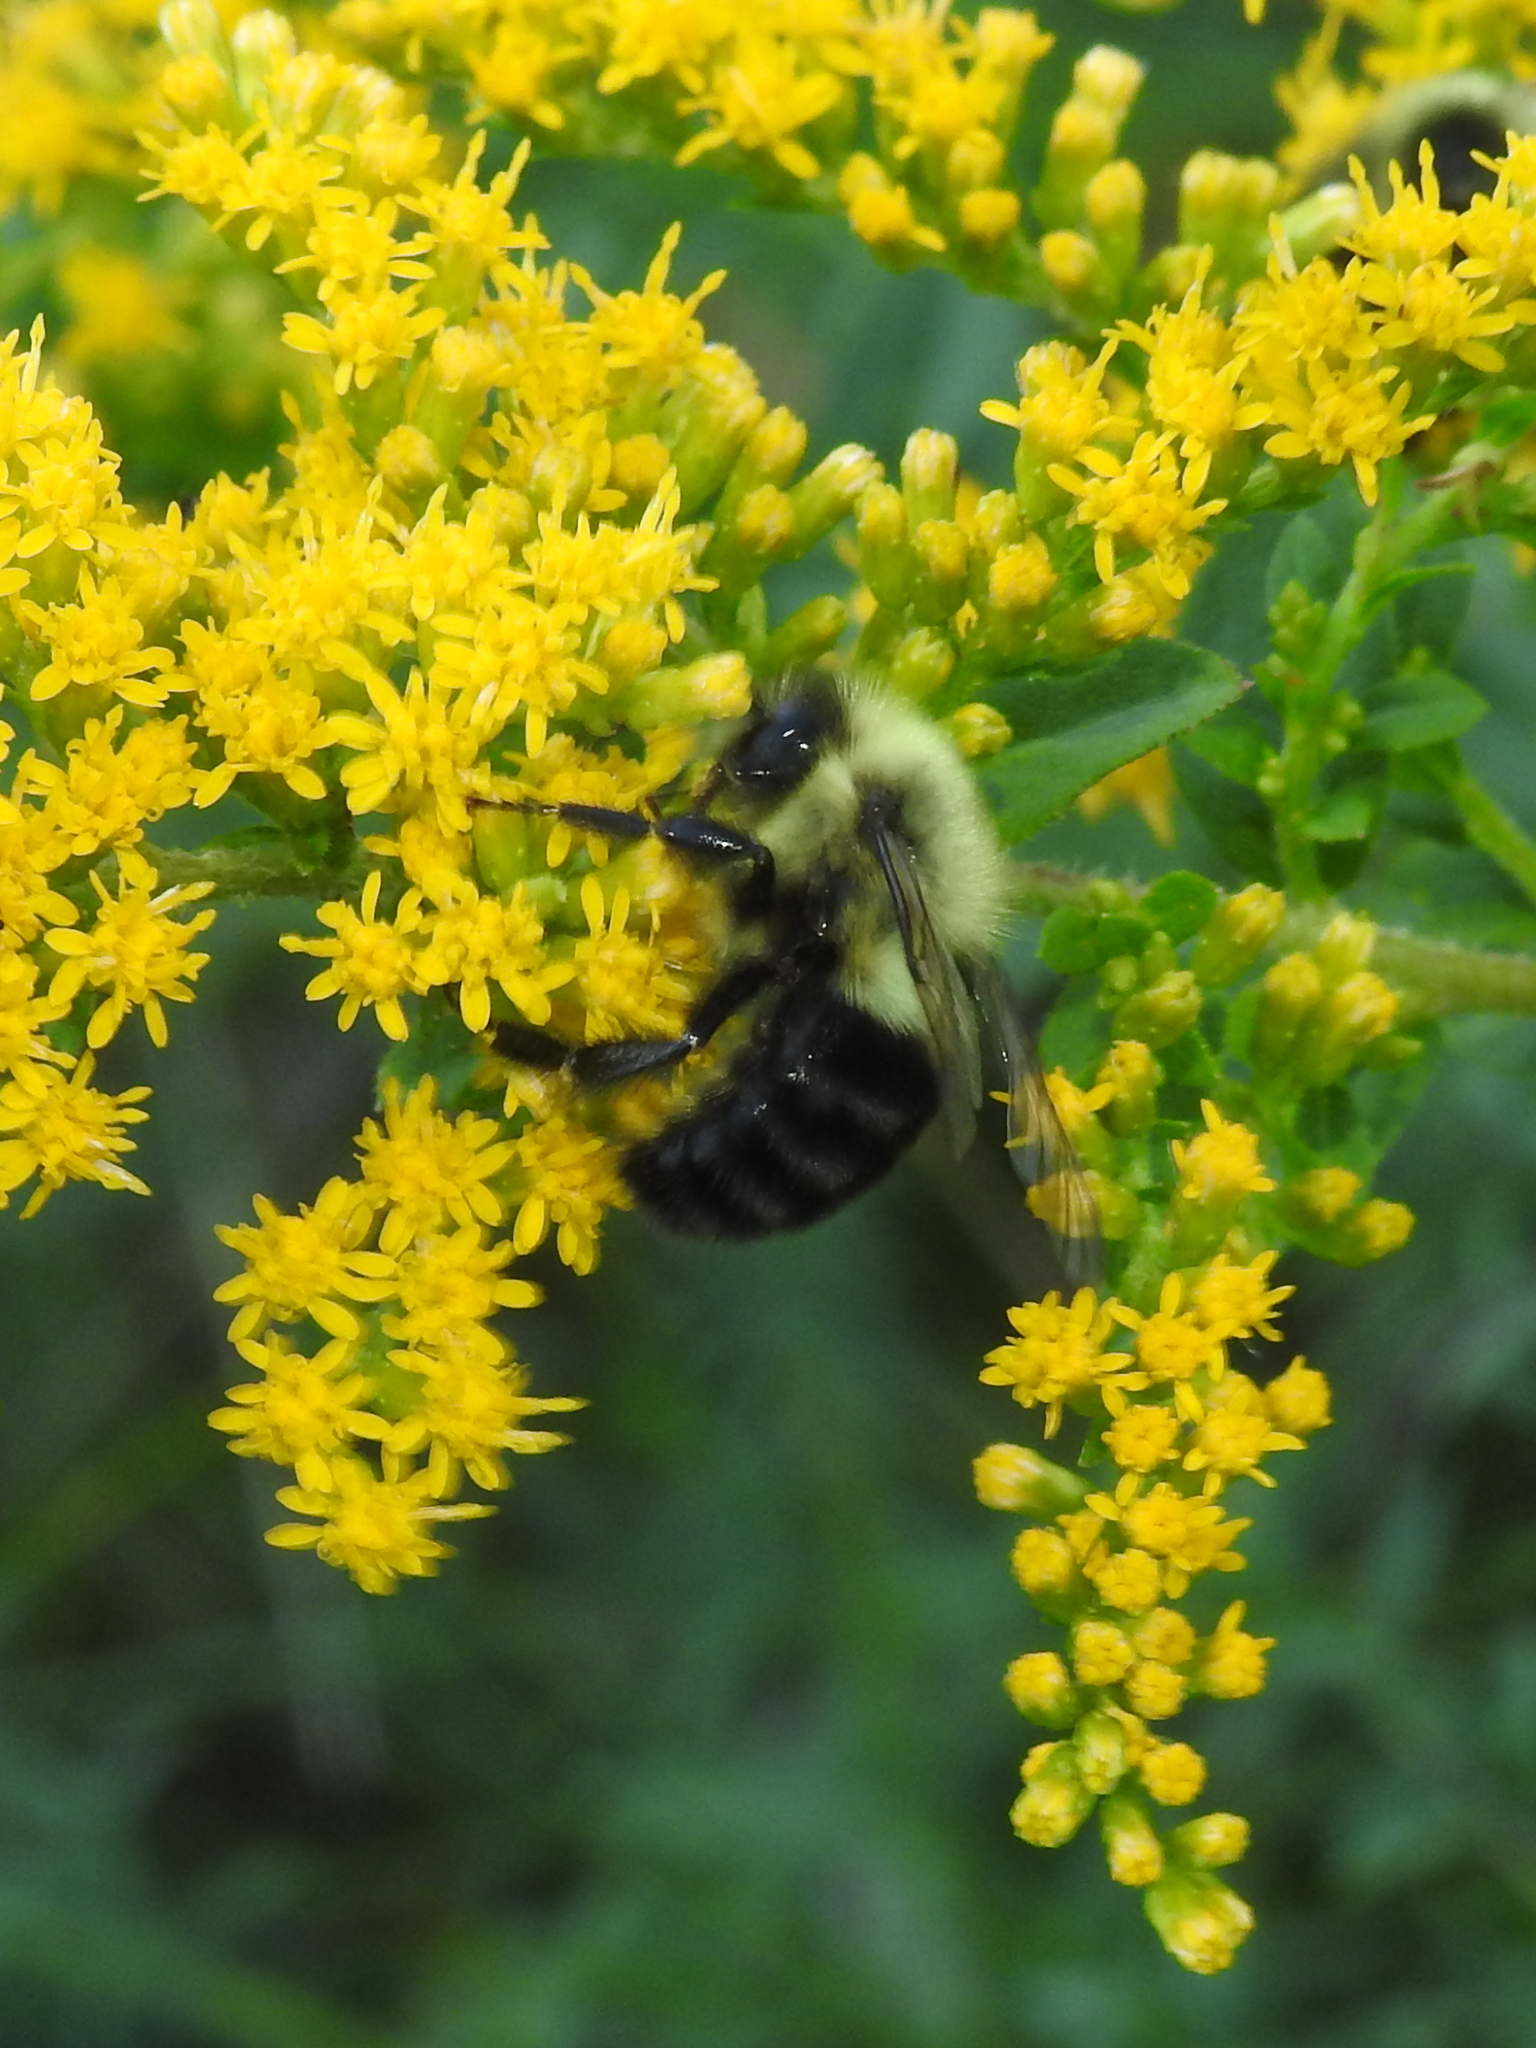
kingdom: Animalia
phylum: Arthropoda
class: Insecta
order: Hymenoptera
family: Apidae
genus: Bombus
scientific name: Bombus impatiens
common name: Common eastern bumble bee
